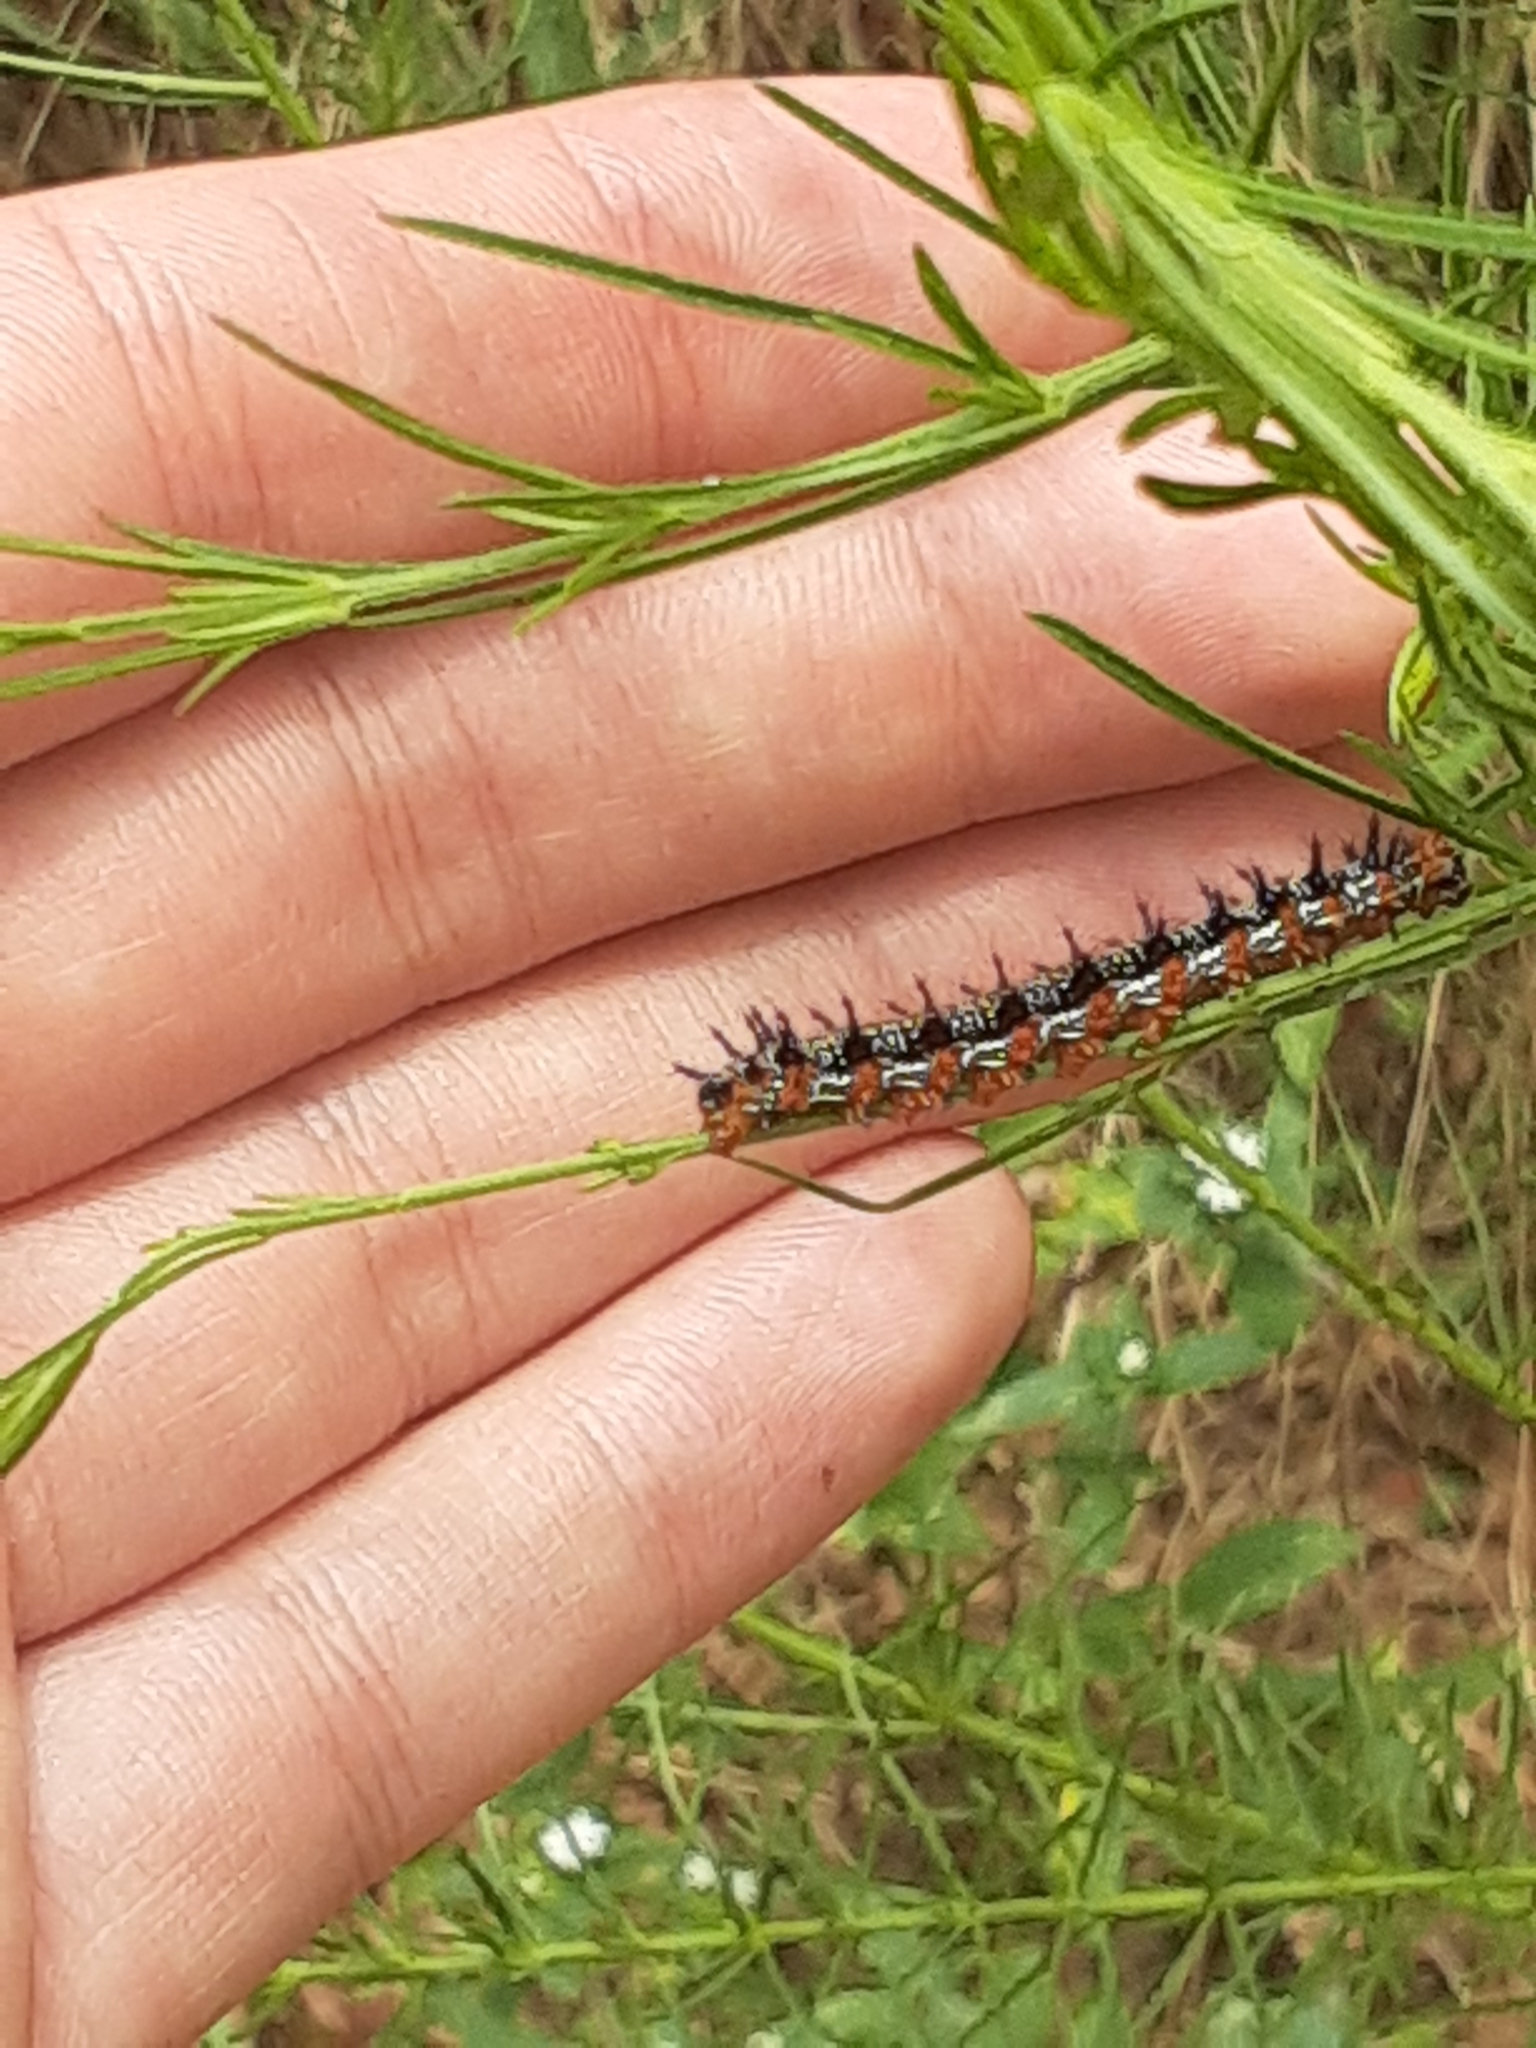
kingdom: Animalia
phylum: Arthropoda
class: Insecta
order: Lepidoptera
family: Nymphalidae
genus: Junonia
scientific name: Junonia coenia
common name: Common buckeye
